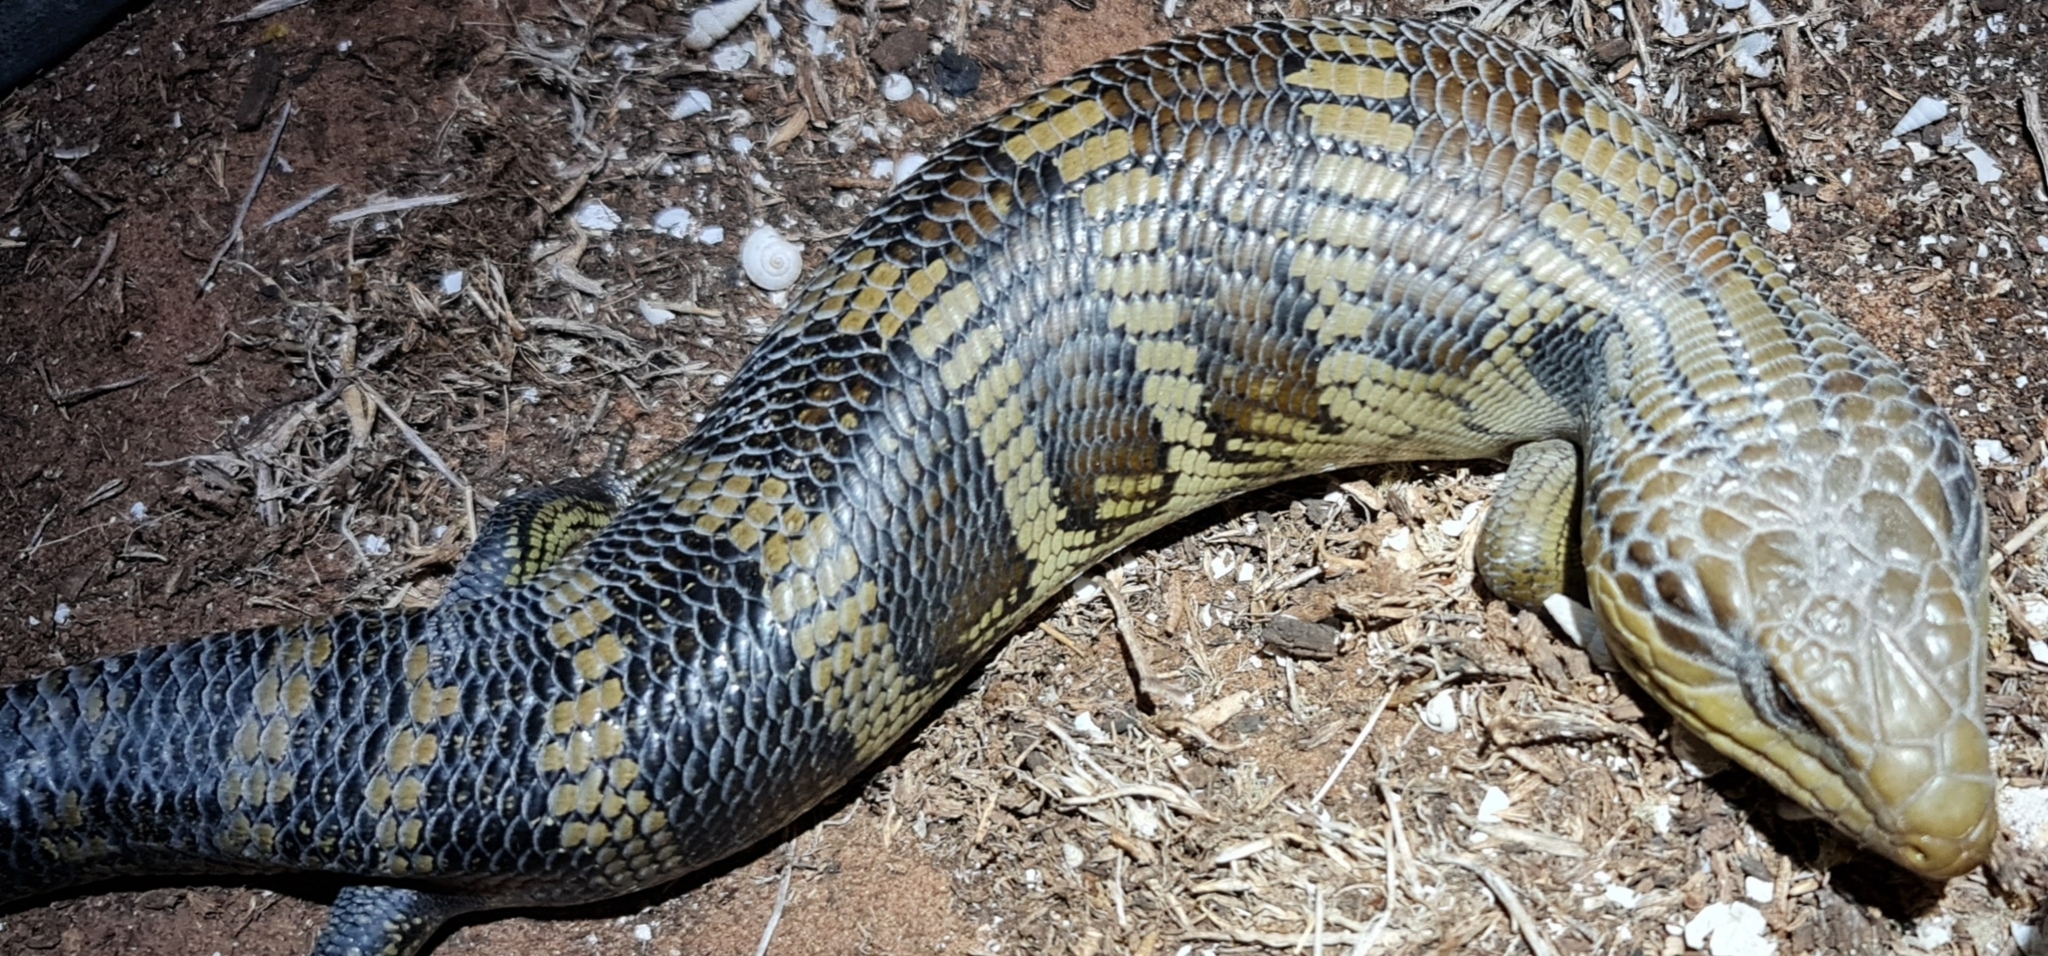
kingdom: Animalia
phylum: Chordata
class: Squamata
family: Scincidae
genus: Tiliqua
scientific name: Tiliqua scincoides
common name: Common bluetongue
